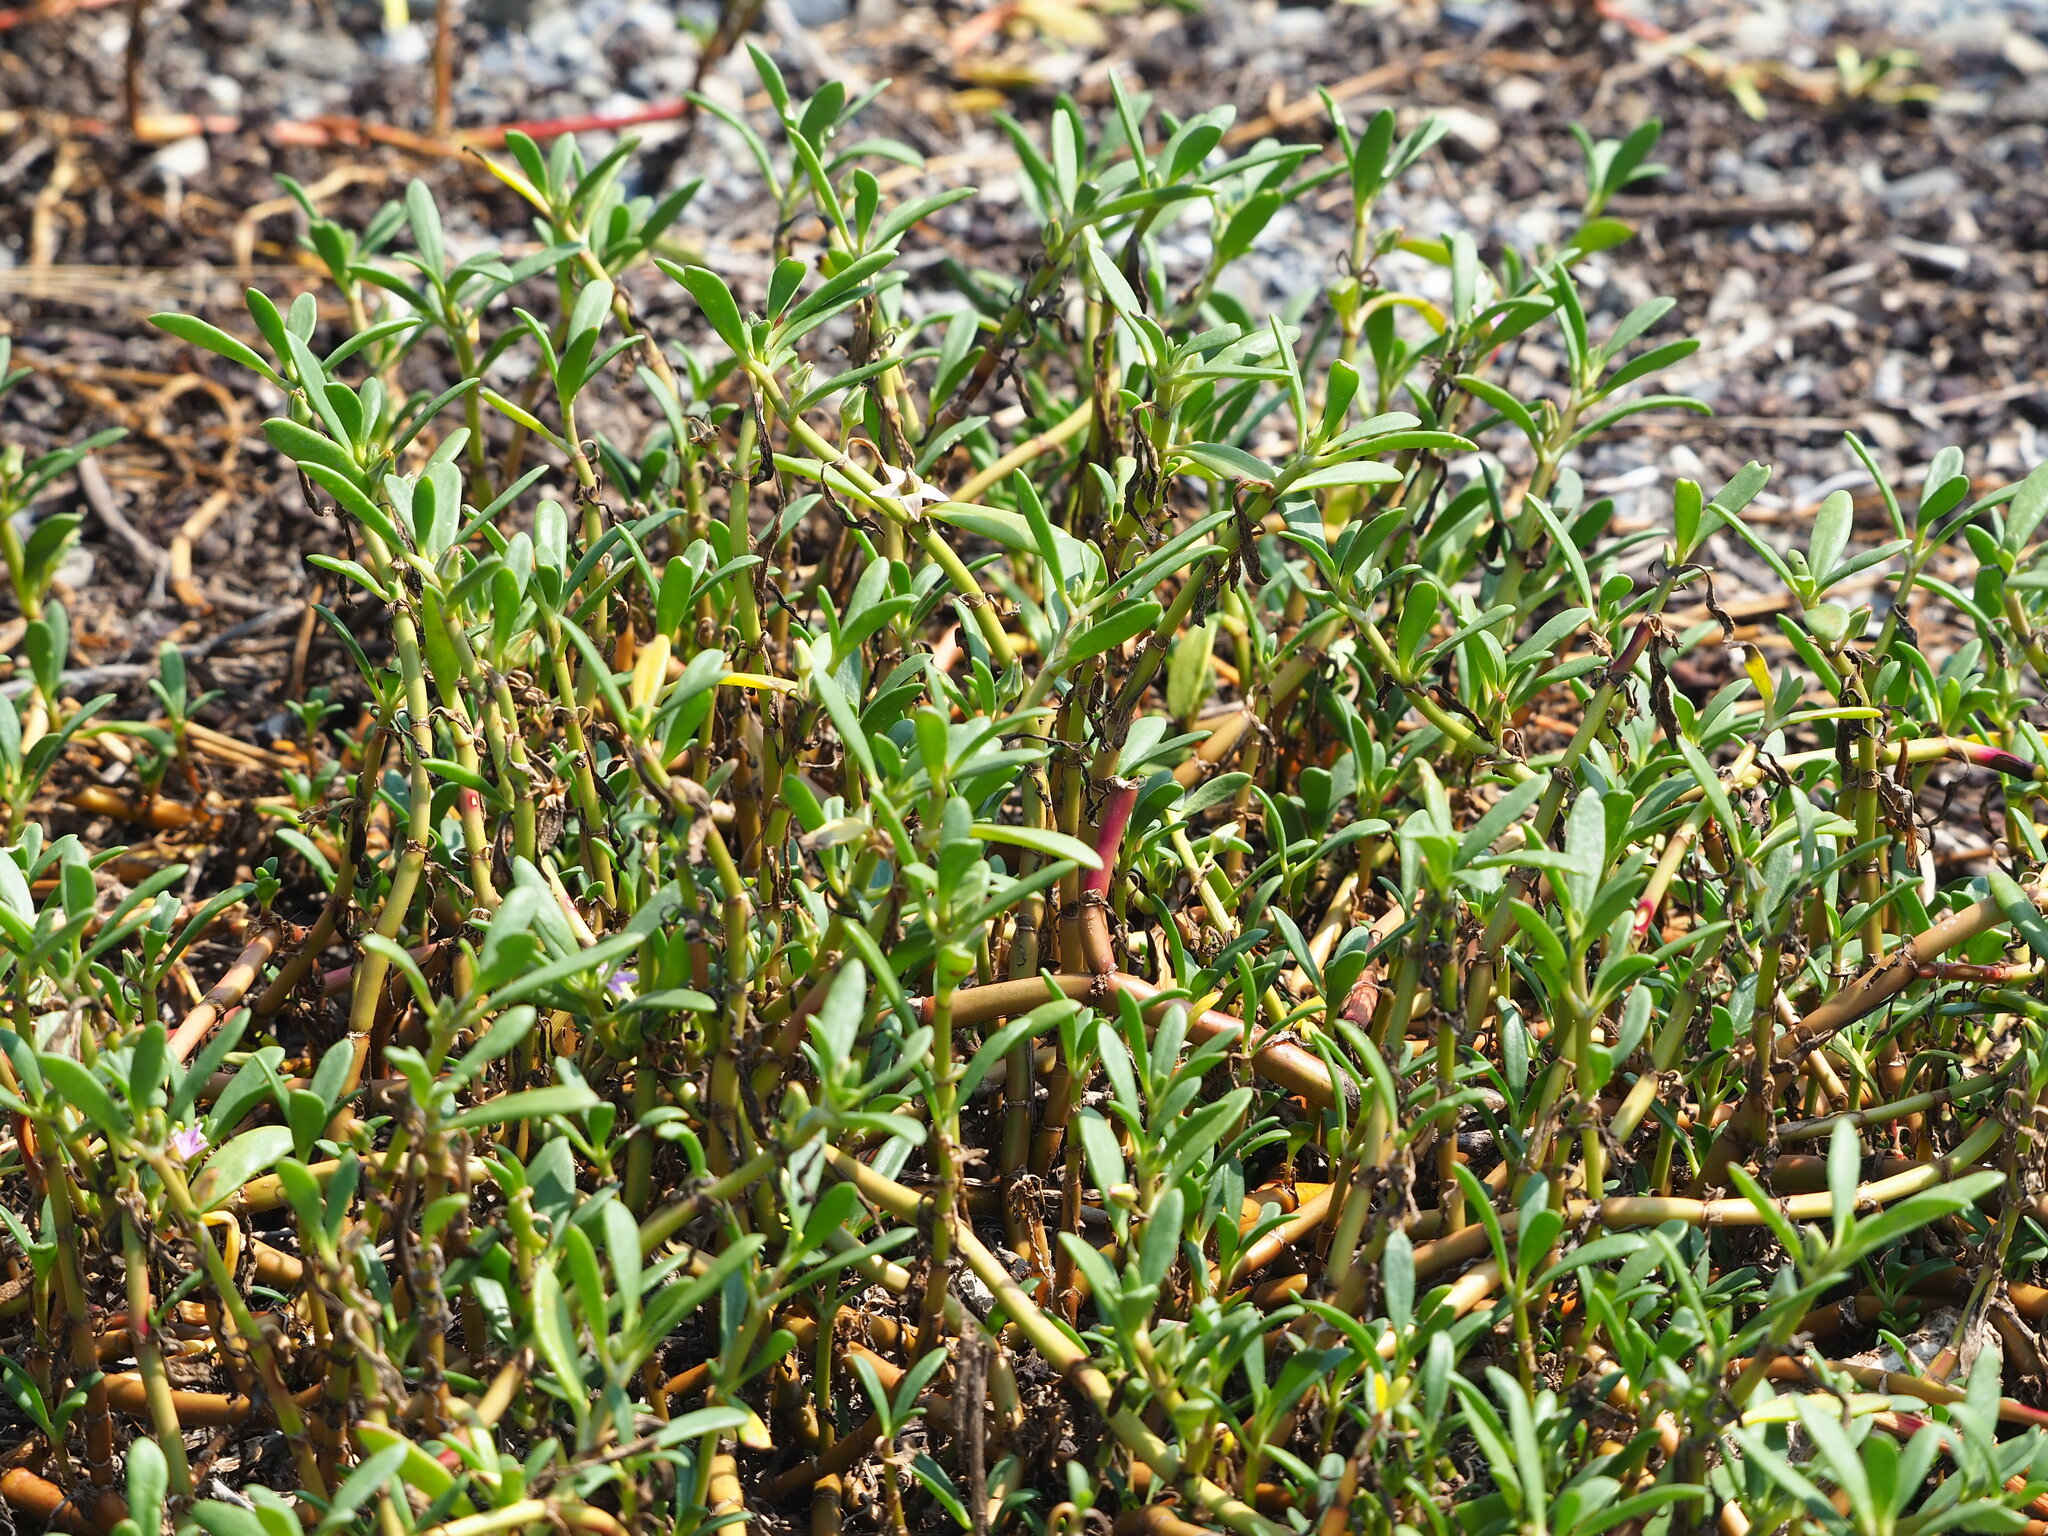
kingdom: Plantae
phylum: Tracheophyta
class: Magnoliopsida
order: Caryophyllales
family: Aizoaceae
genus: Sesuvium
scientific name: Sesuvium portulacastrum
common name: Sea-purslane
